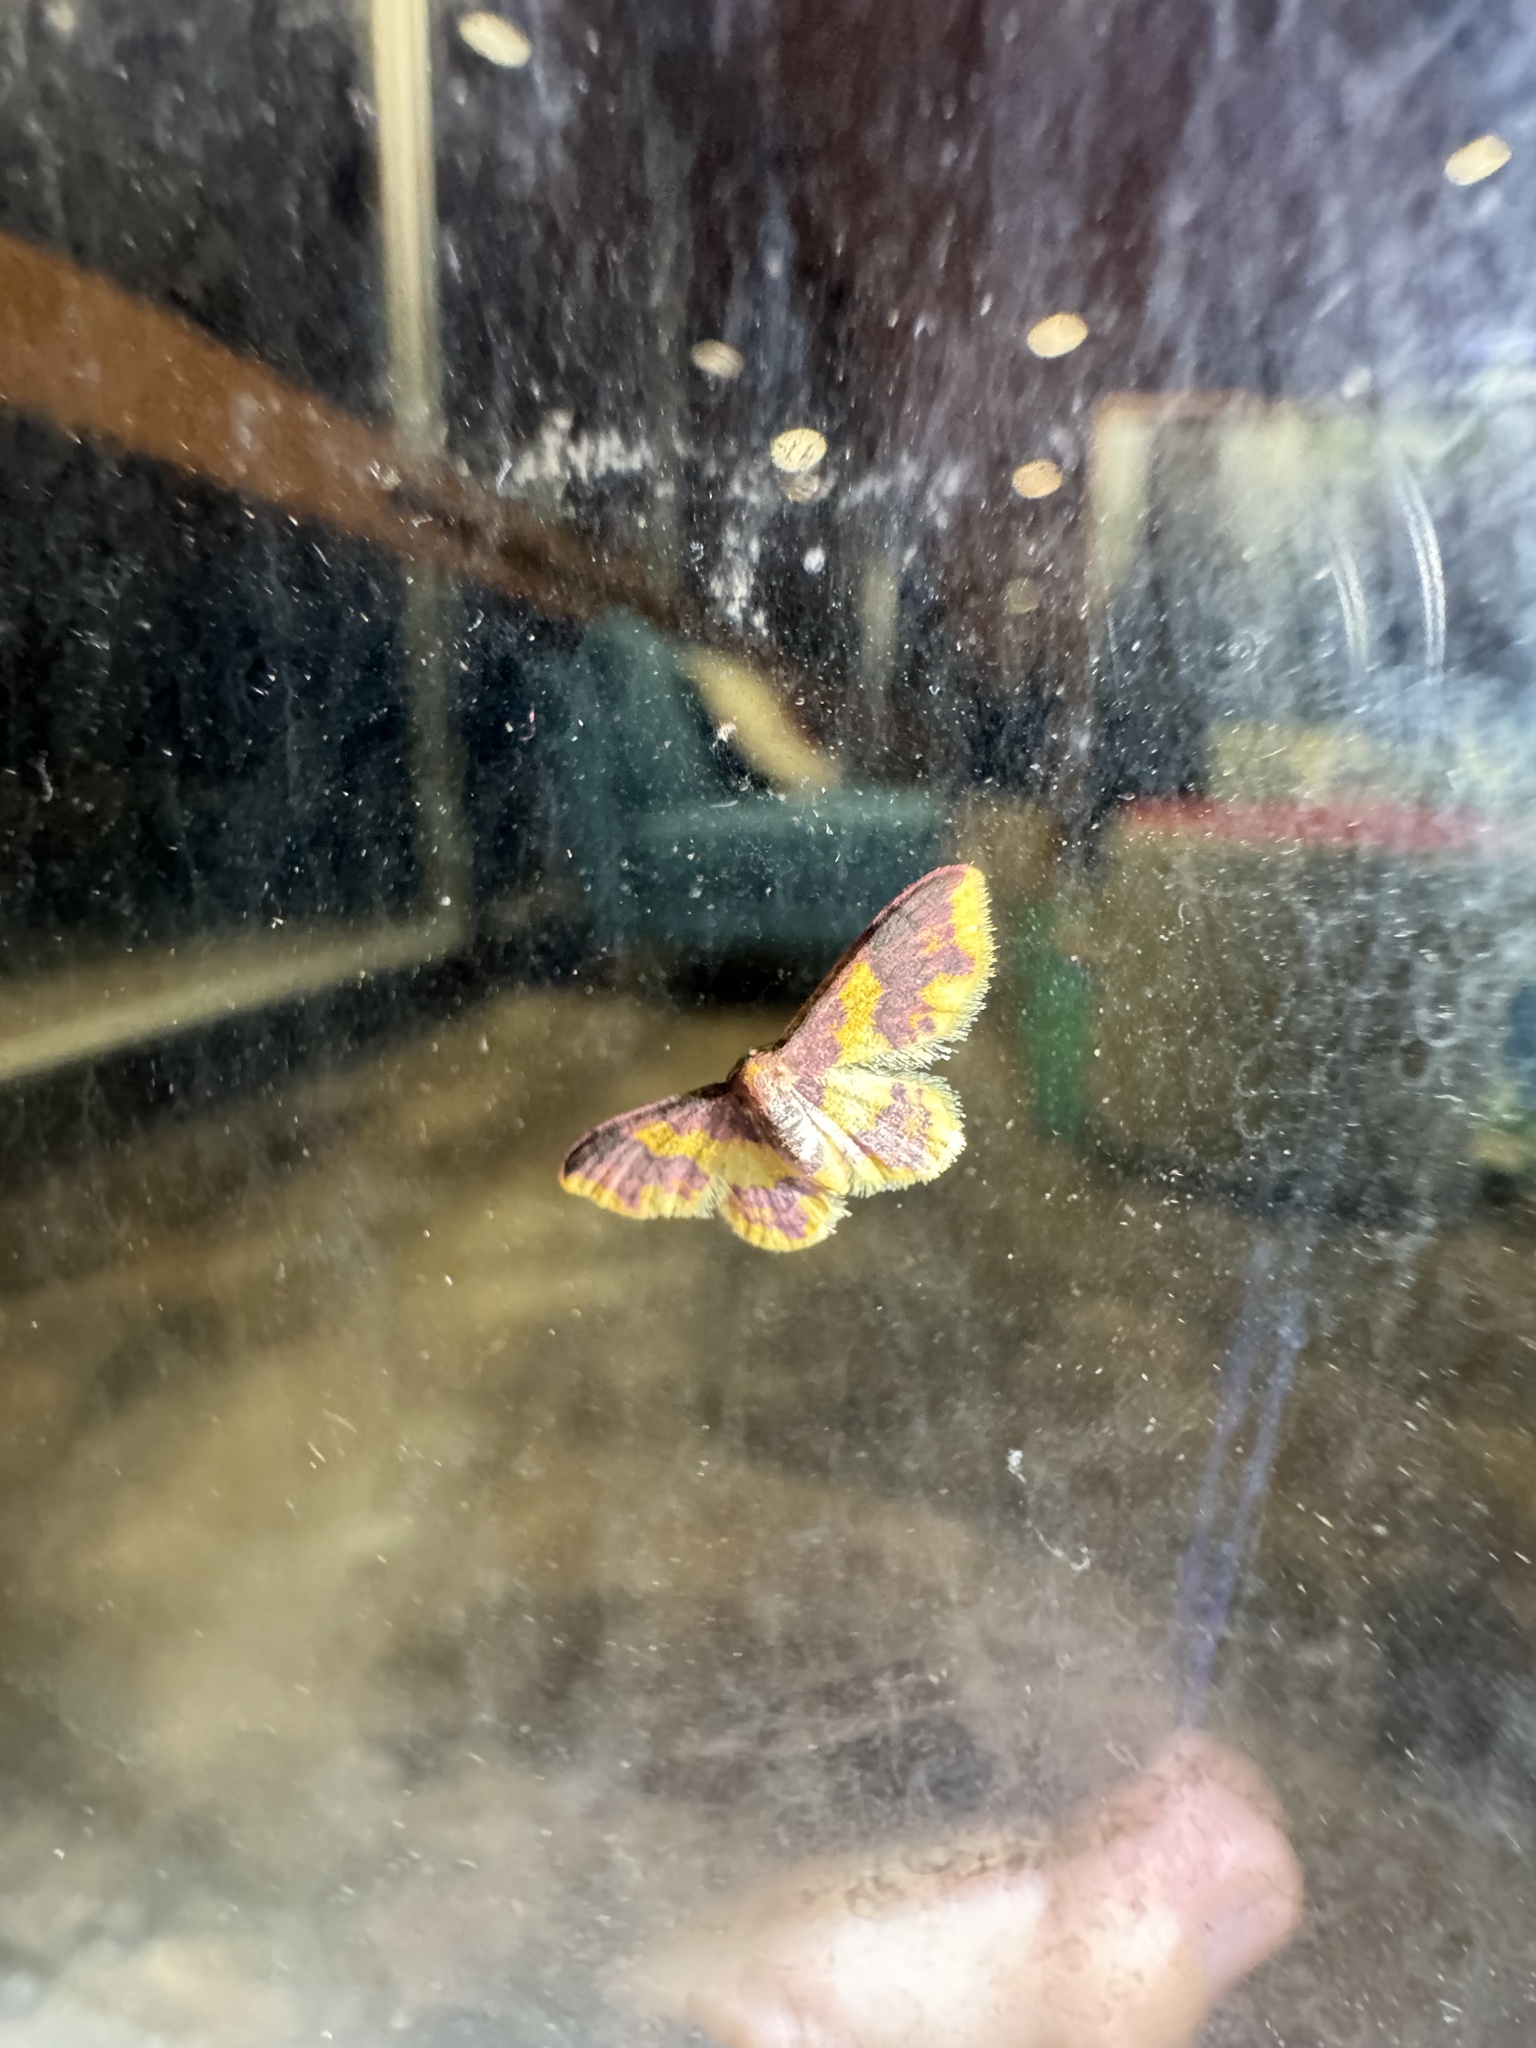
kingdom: Animalia
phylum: Arthropoda
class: Insecta
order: Lepidoptera
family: Geometridae
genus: Lophosis
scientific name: Lophosis labeculata
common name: Stained lophosis moth
